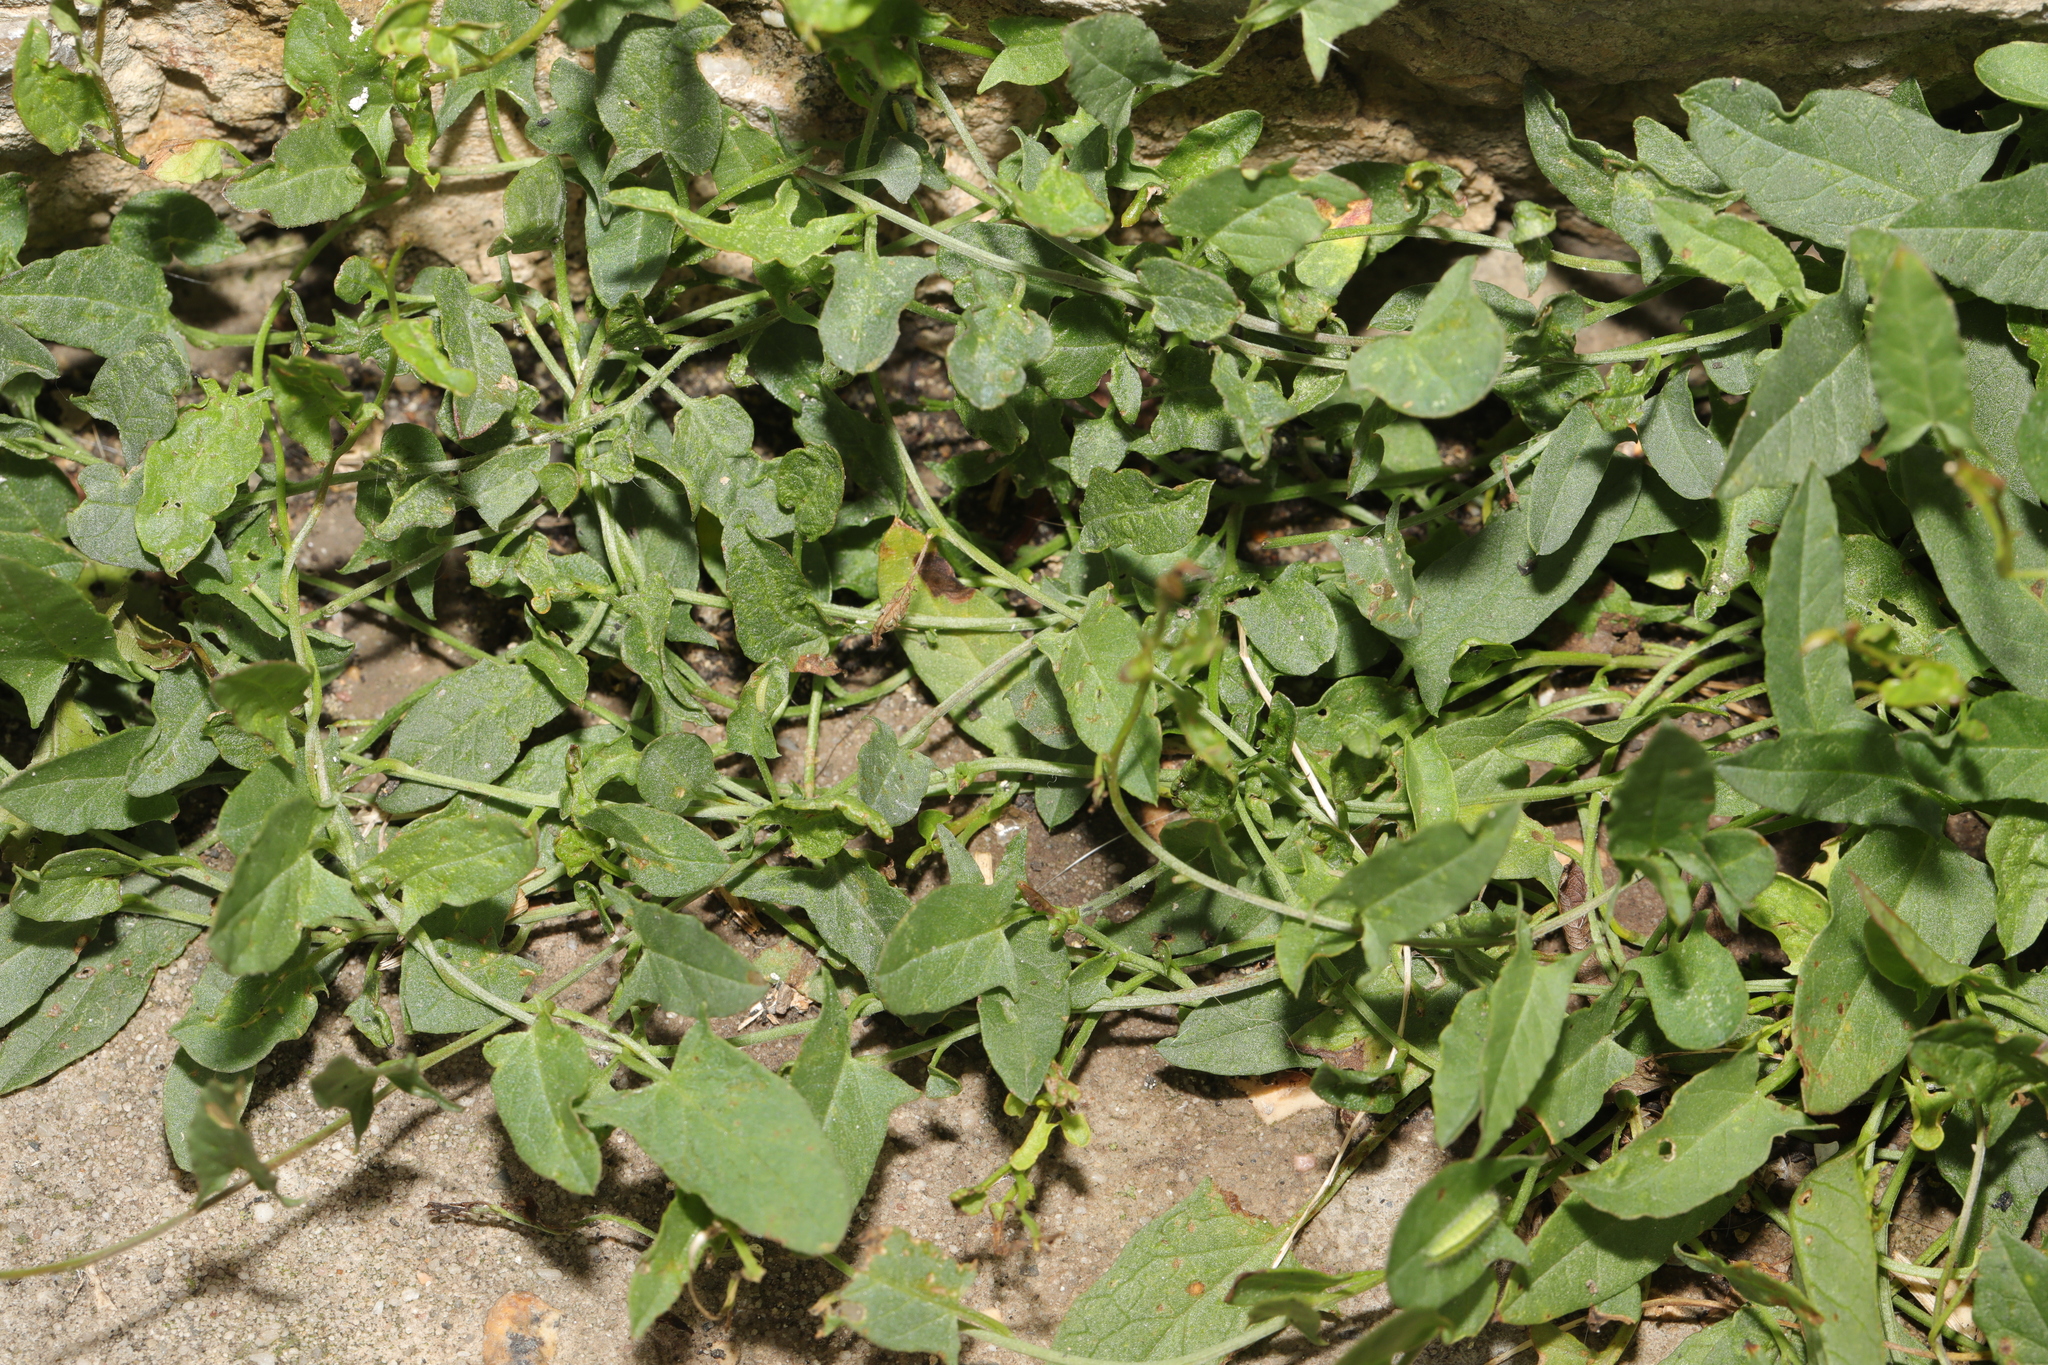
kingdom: Plantae
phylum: Tracheophyta
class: Magnoliopsida
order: Solanales
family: Convolvulaceae
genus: Convolvulus
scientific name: Convolvulus arvensis
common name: Field bindweed
